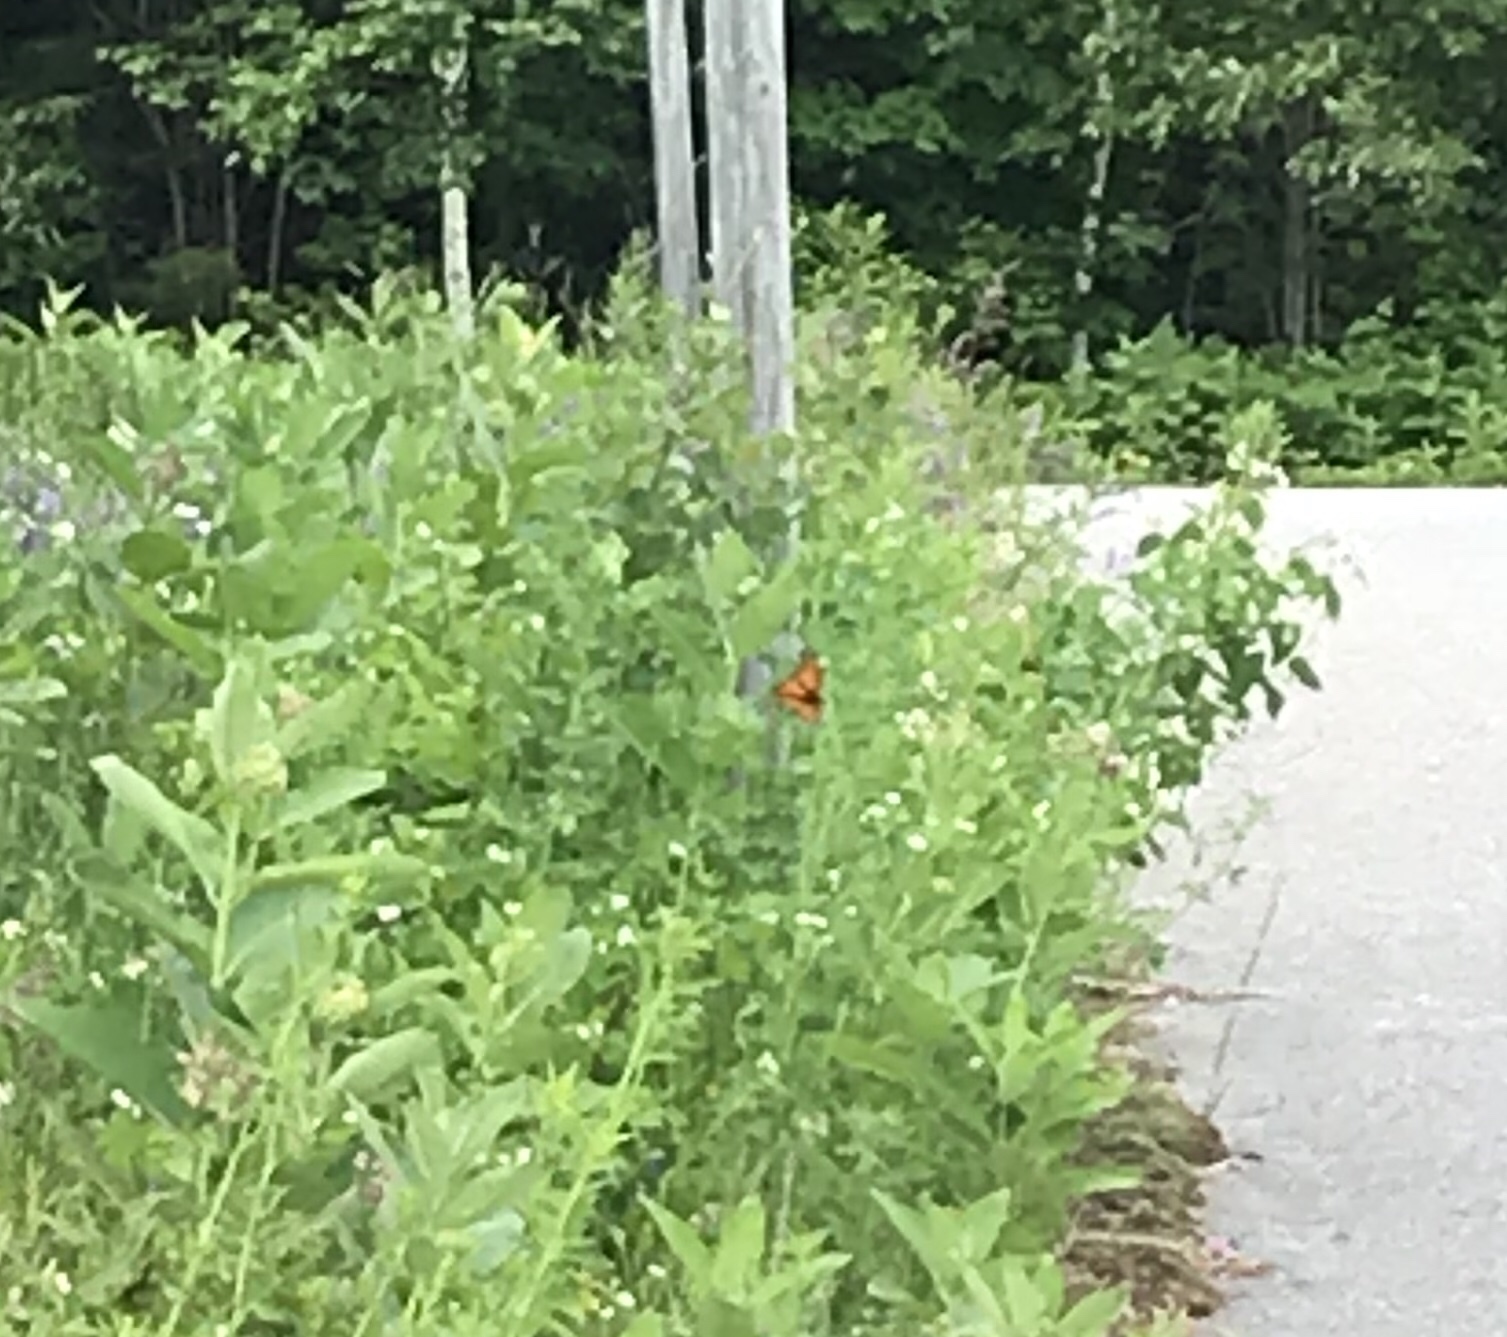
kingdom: Animalia
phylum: Arthropoda
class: Insecta
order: Lepidoptera
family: Nymphalidae
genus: Danaus
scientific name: Danaus plexippus
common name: Monarch
